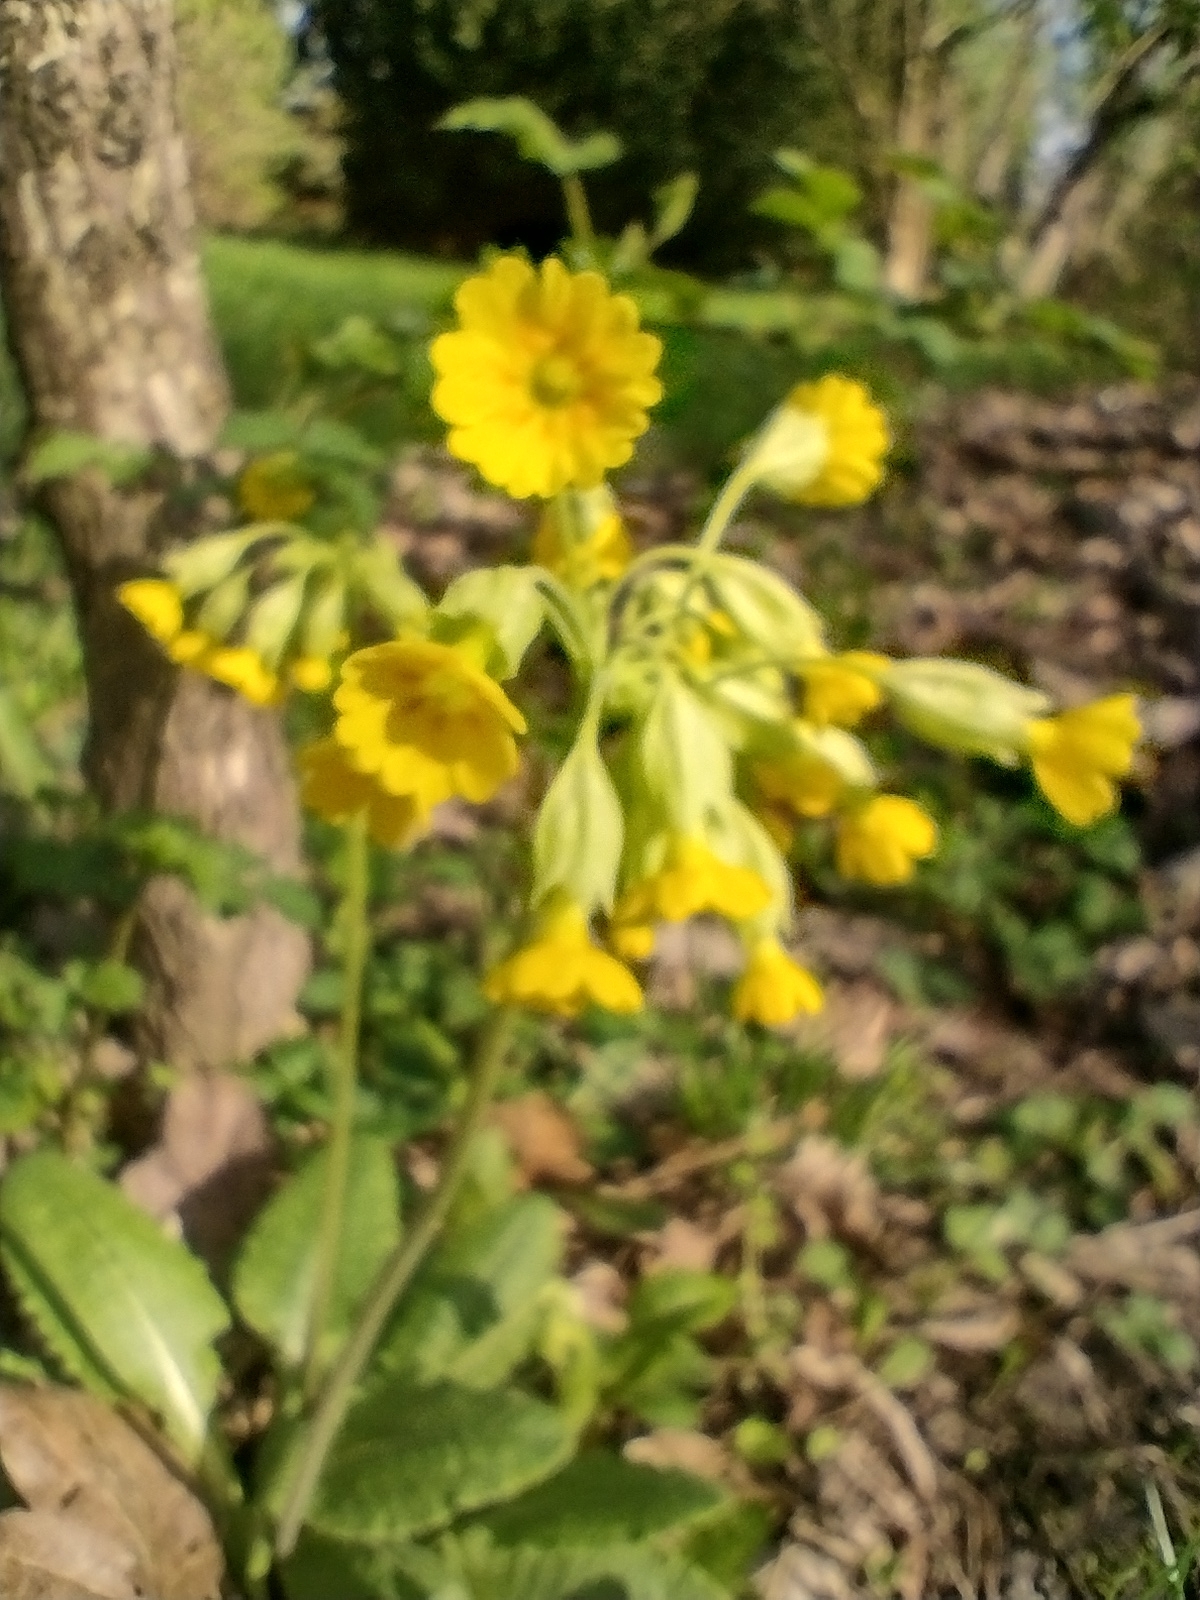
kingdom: Plantae
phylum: Tracheophyta
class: Magnoliopsida
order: Ericales
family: Primulaceae
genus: Primula
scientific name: Primula veris
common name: Cowslip
